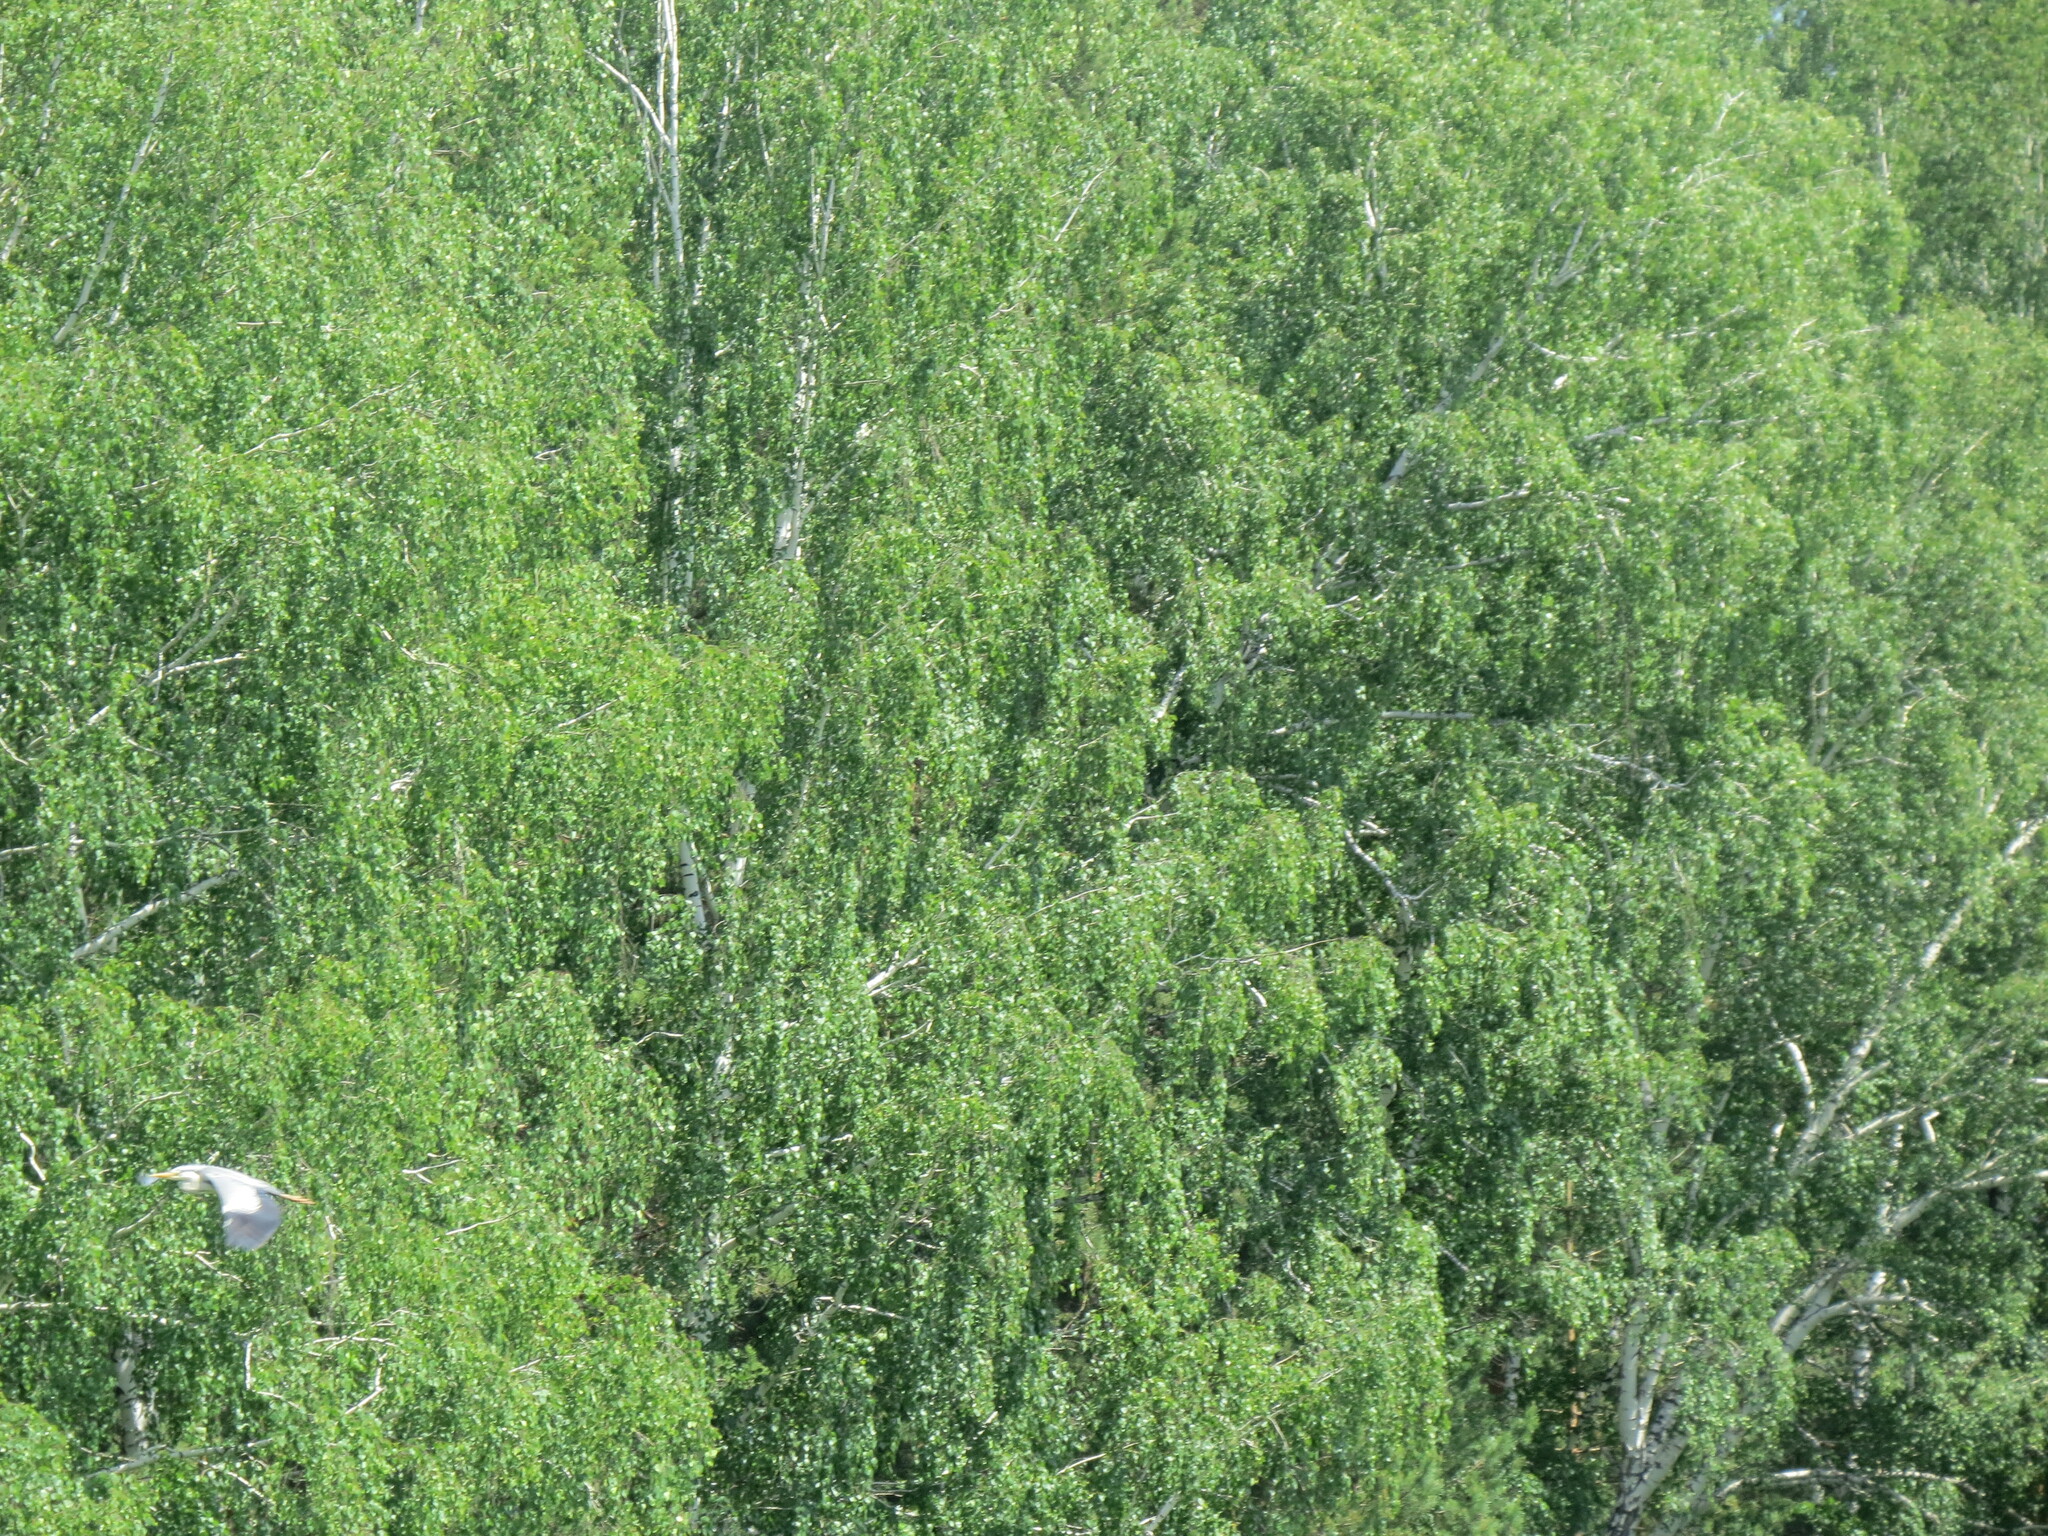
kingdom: Animalia
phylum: Chordata
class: Aves
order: Pelecaniformes
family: Ardeidae
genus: Ardea
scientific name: Ardea cinerea
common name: Grey heron
